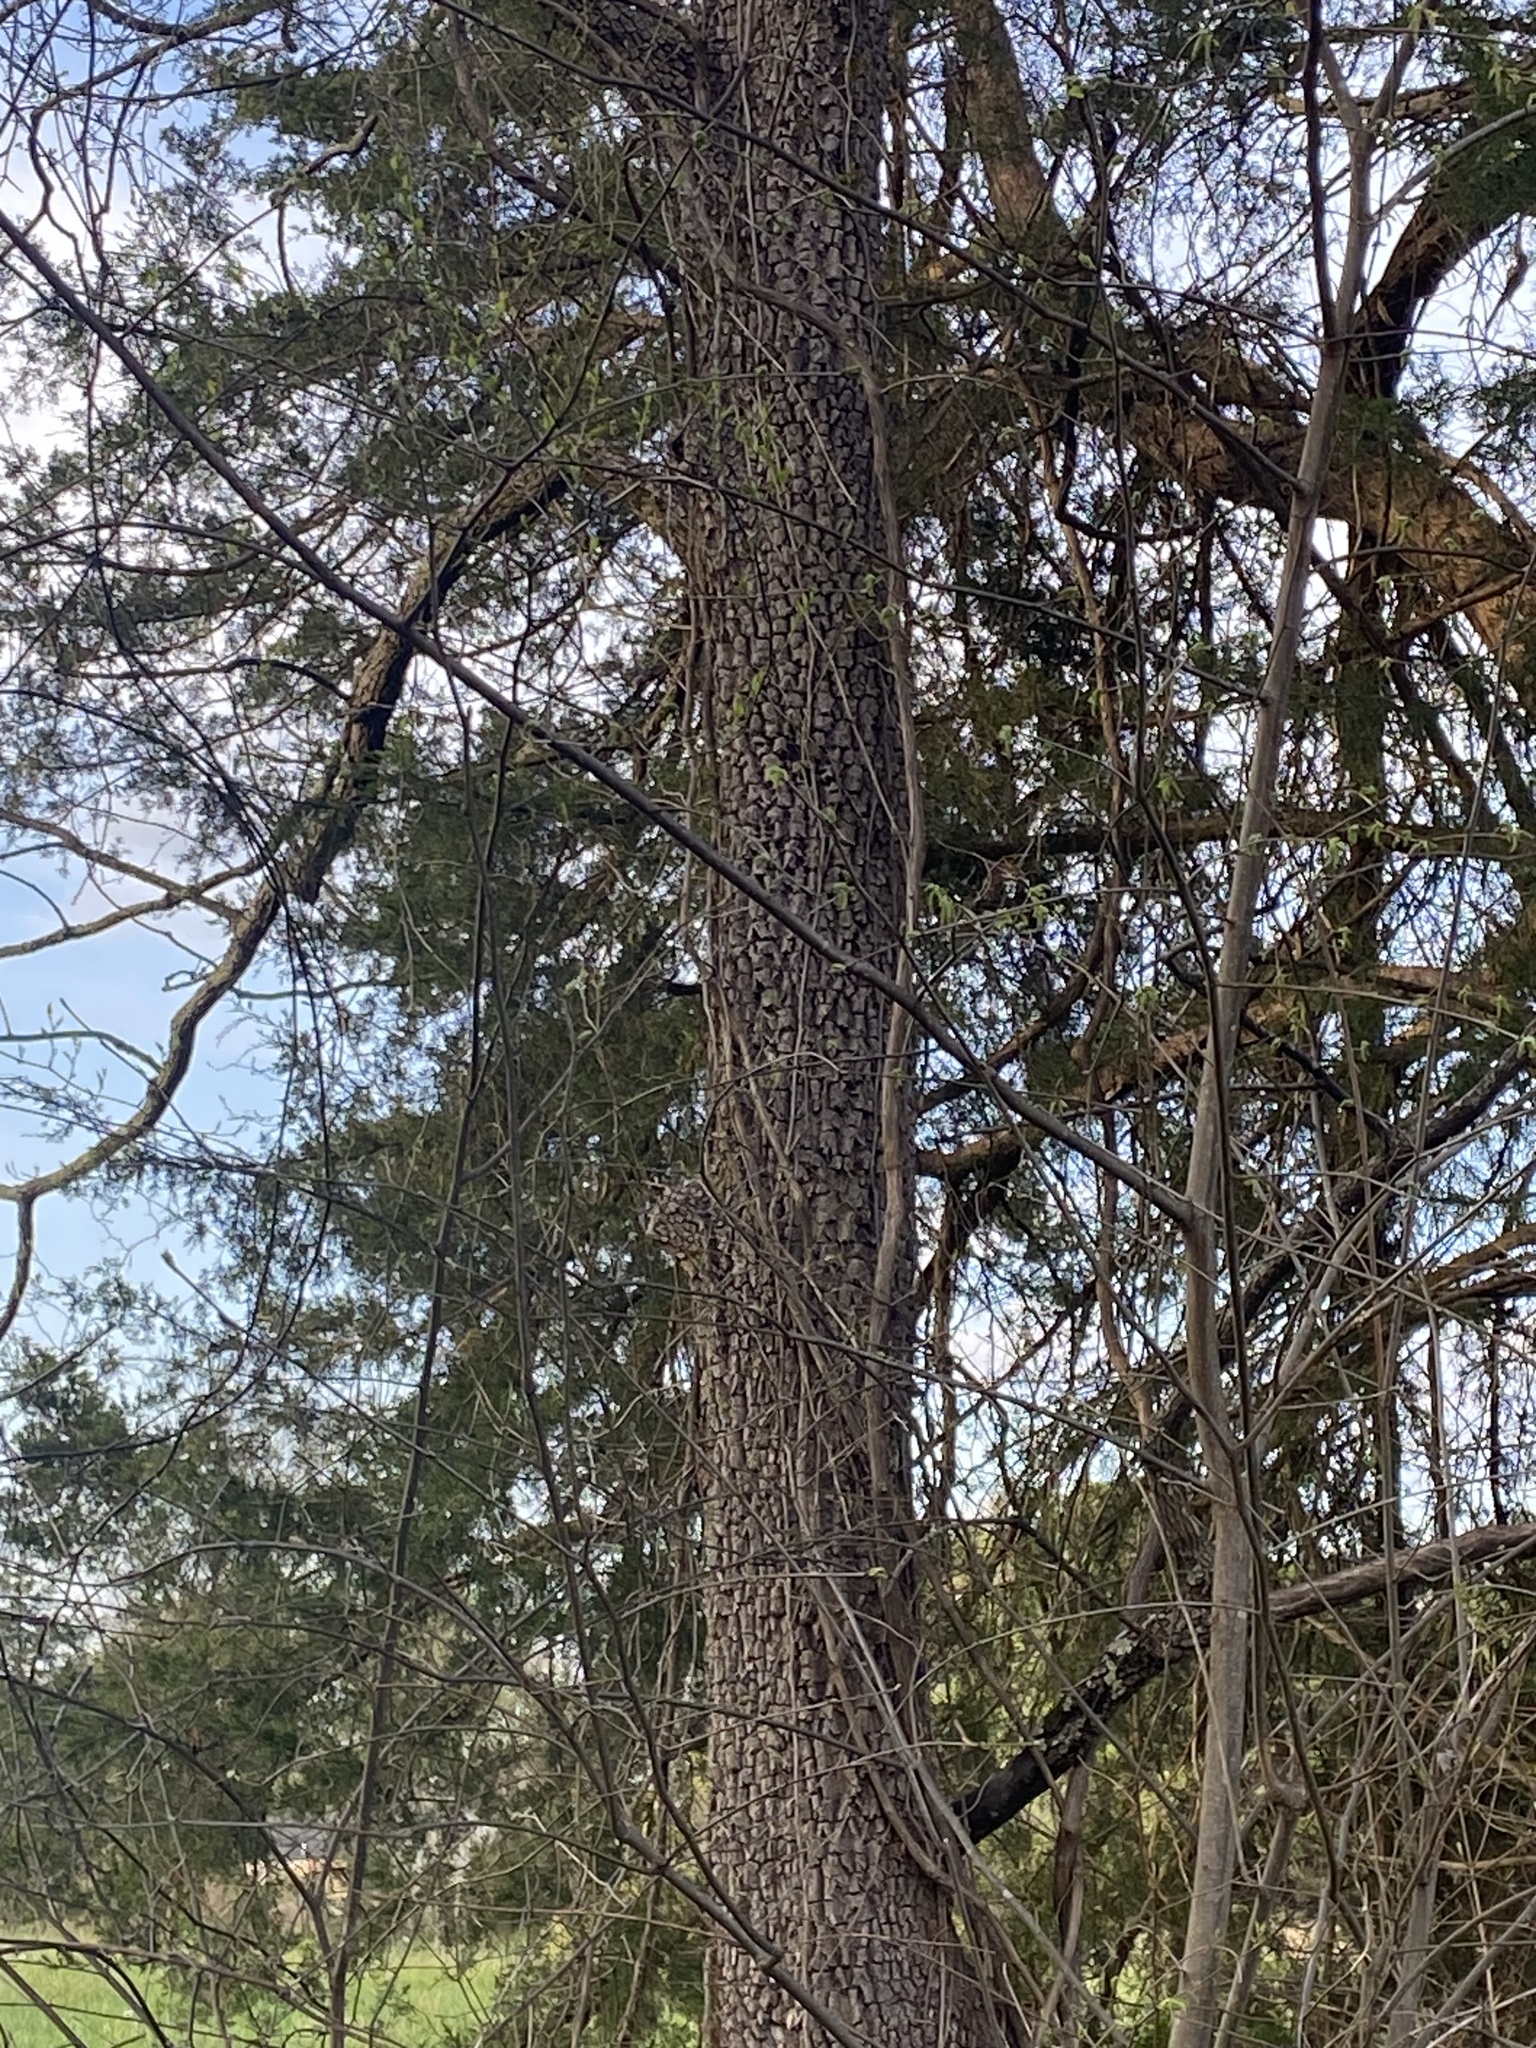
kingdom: Plantae
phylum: Tracheophyta
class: Magnoliopsida
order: Ericales
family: Ebenaceae
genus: Diospyros
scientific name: Diospyros virginiana
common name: Persimmon
